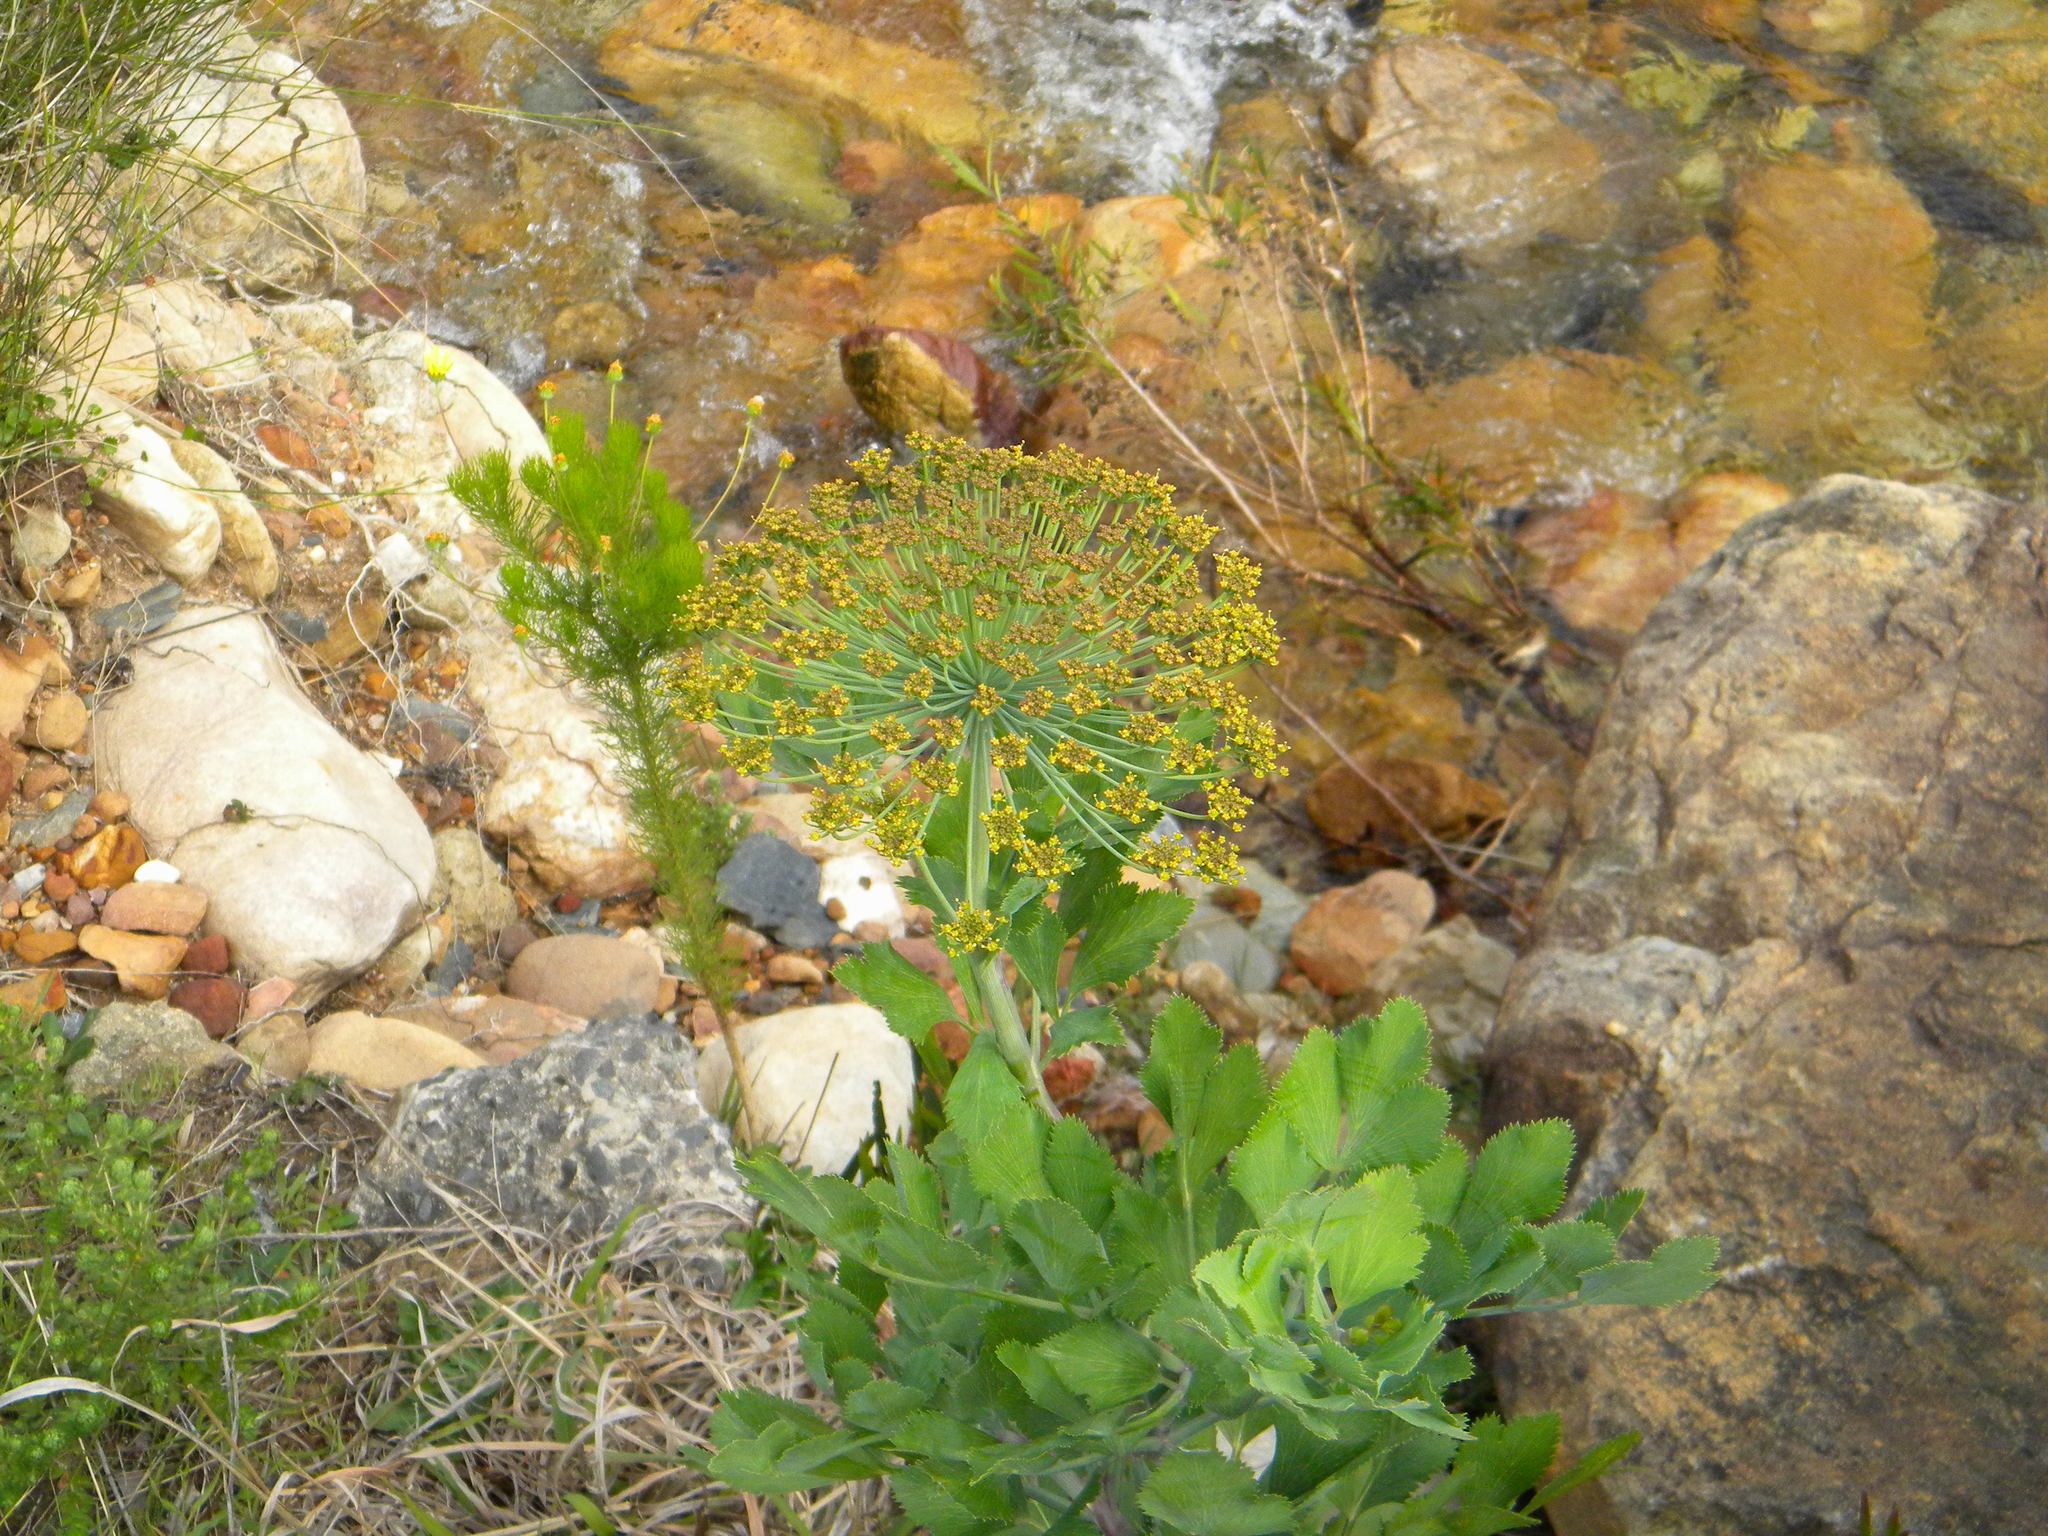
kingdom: Plantae
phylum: Tracheophyta
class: Magnoliopsida
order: Apiales
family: Apiaceae
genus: Notobubon
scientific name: Notobubon galbanum
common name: Blisterbush
